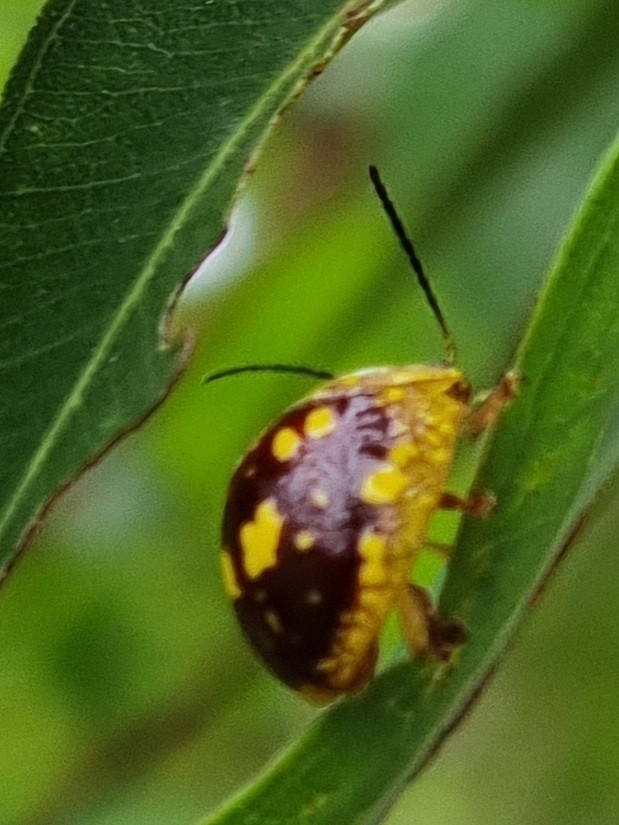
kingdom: Animalia
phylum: Arthropoda
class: Insecta
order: Coleoptera
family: Chrysomelidae
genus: Paropsis
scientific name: Paropsis maculata
